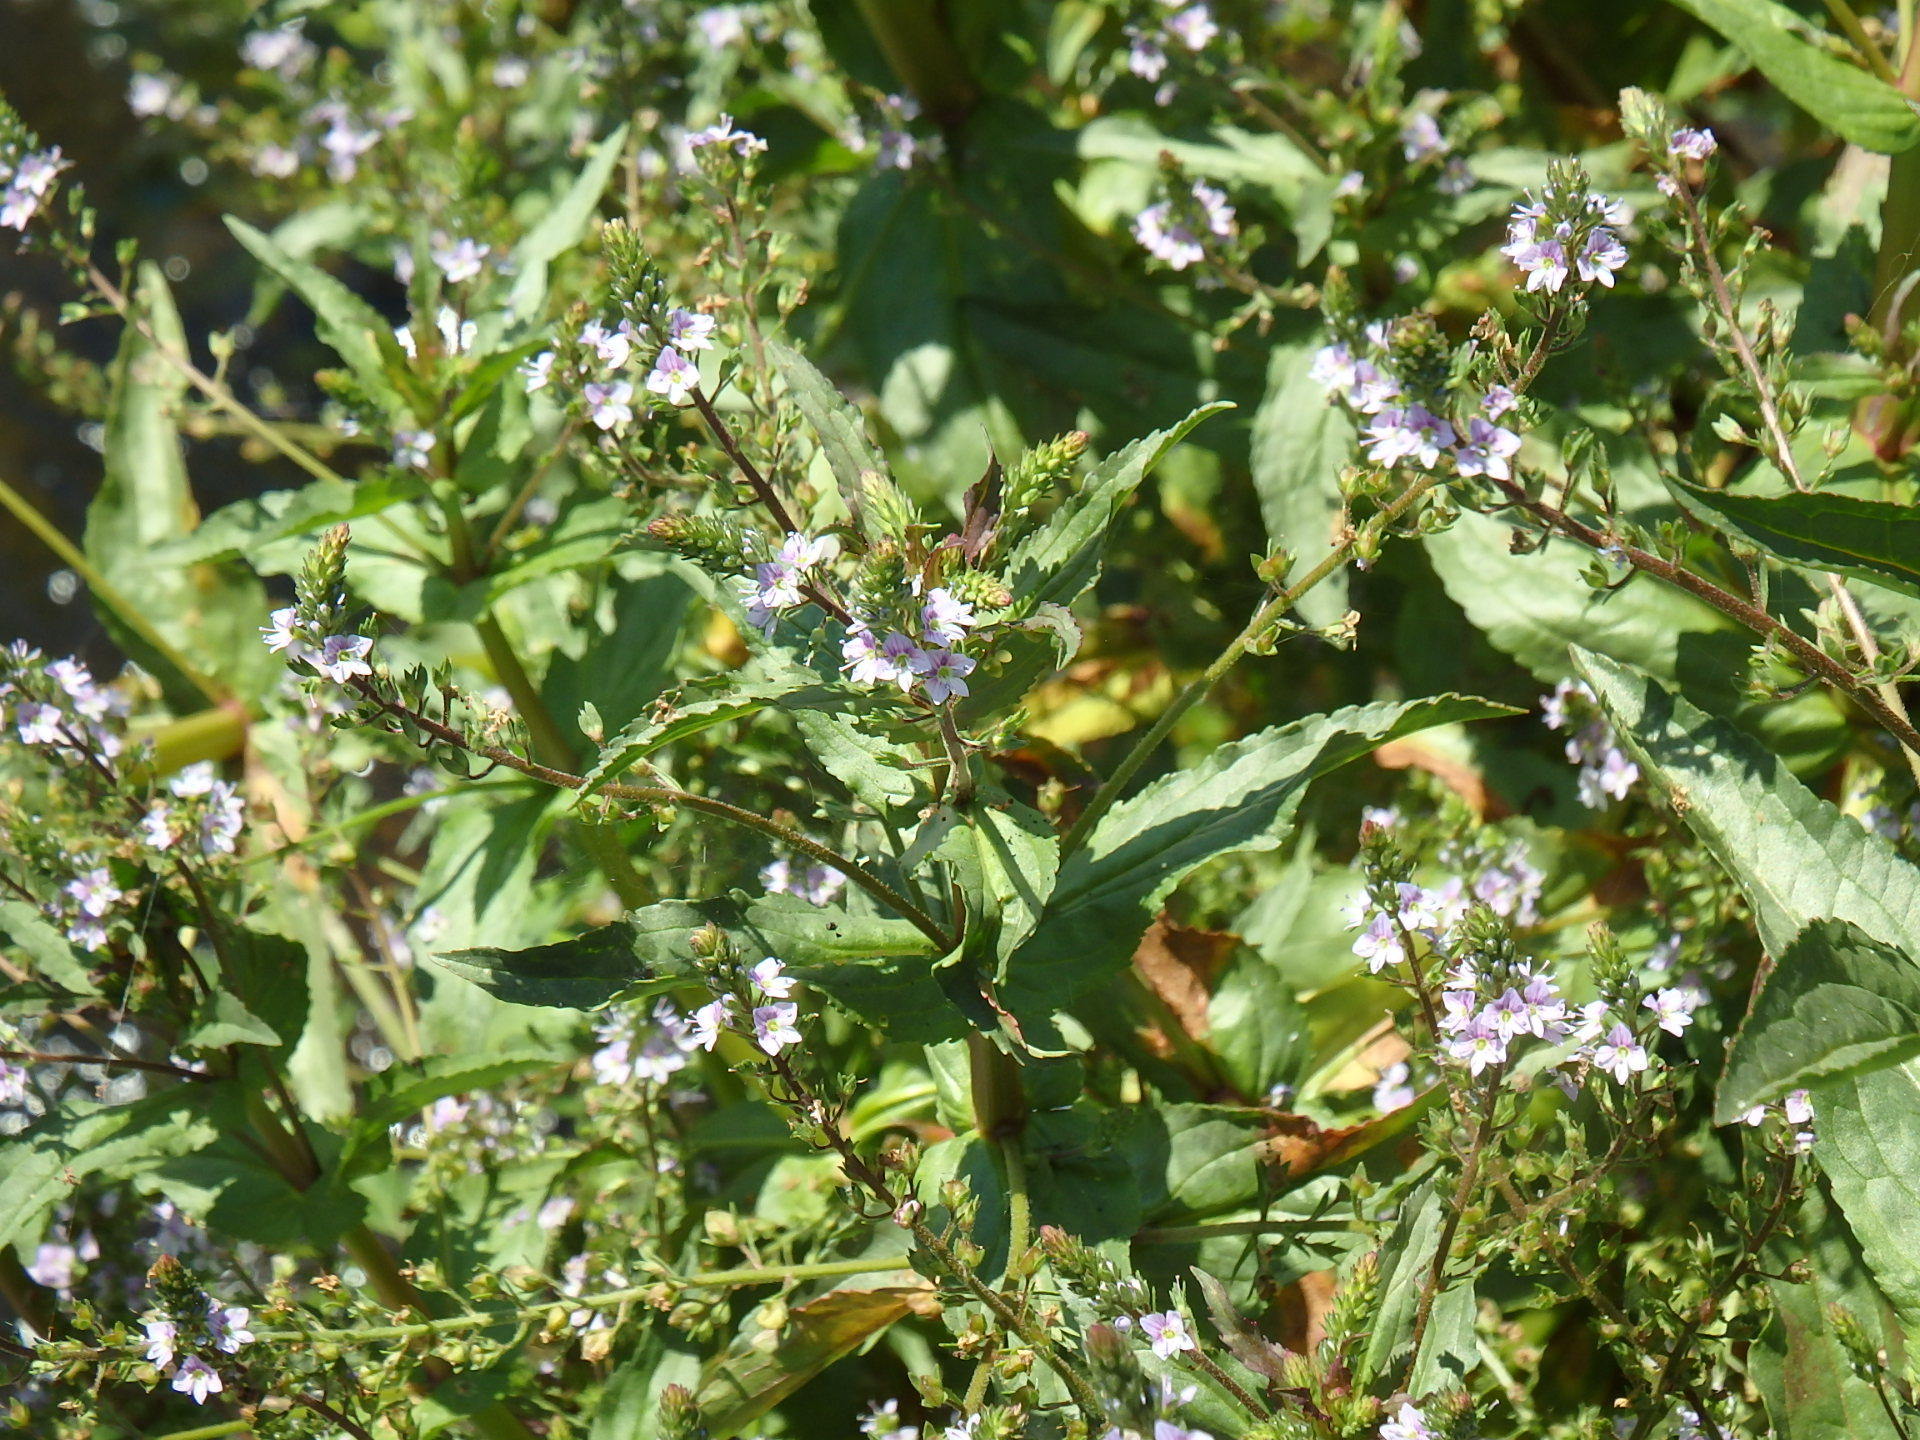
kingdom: Plantae
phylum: Tracheophyta
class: Magnoliopsida
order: Lamiales
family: Plantaginaceae
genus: Veronica
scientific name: Veronica anagallis-aquatica
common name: Water speedwell
